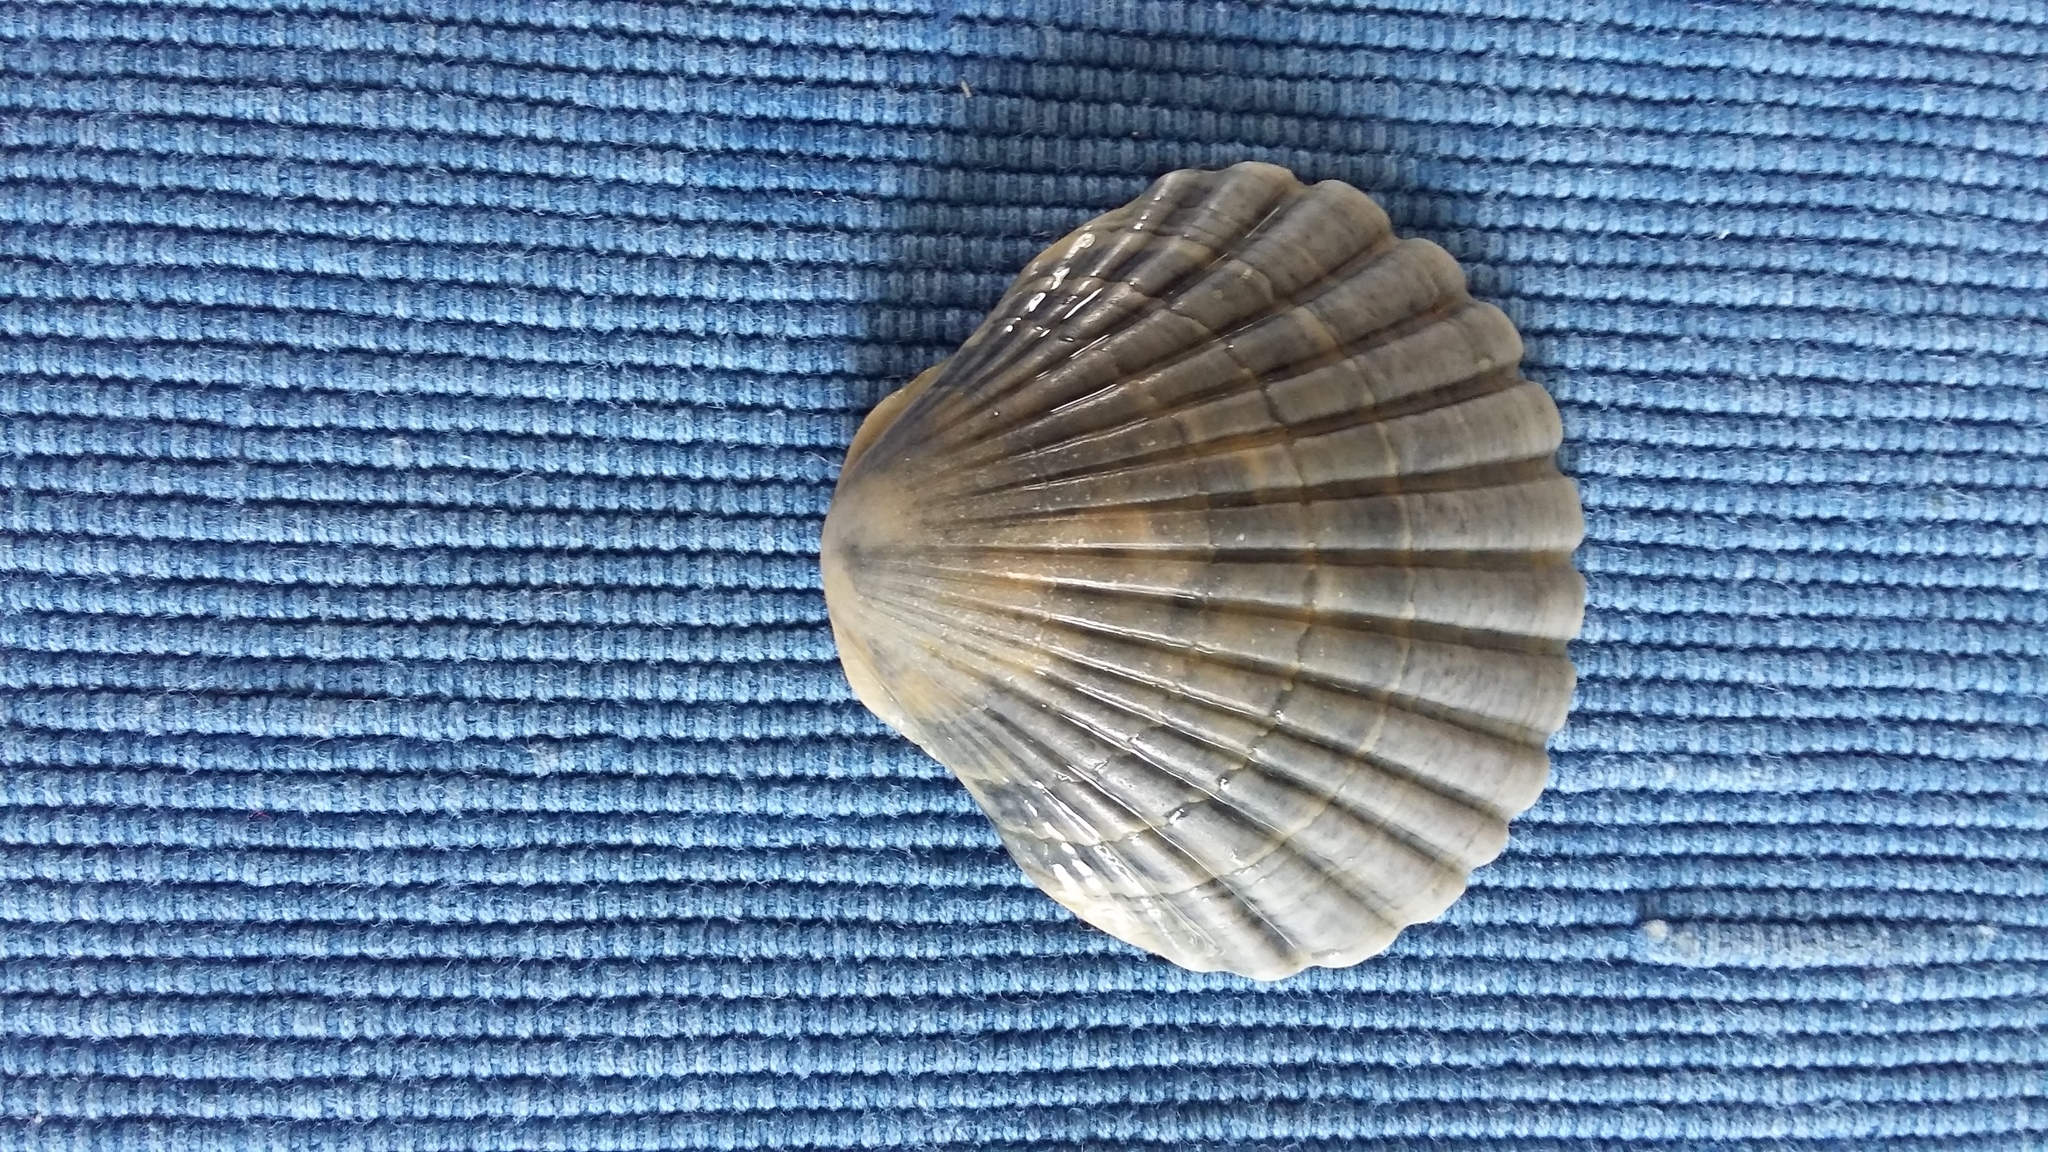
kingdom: Animalia
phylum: Mollusca
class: Bivalvia
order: Pectinida
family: Pectinidae
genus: Pecten
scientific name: Pecten novaezelandiae
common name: New zealand scallop
